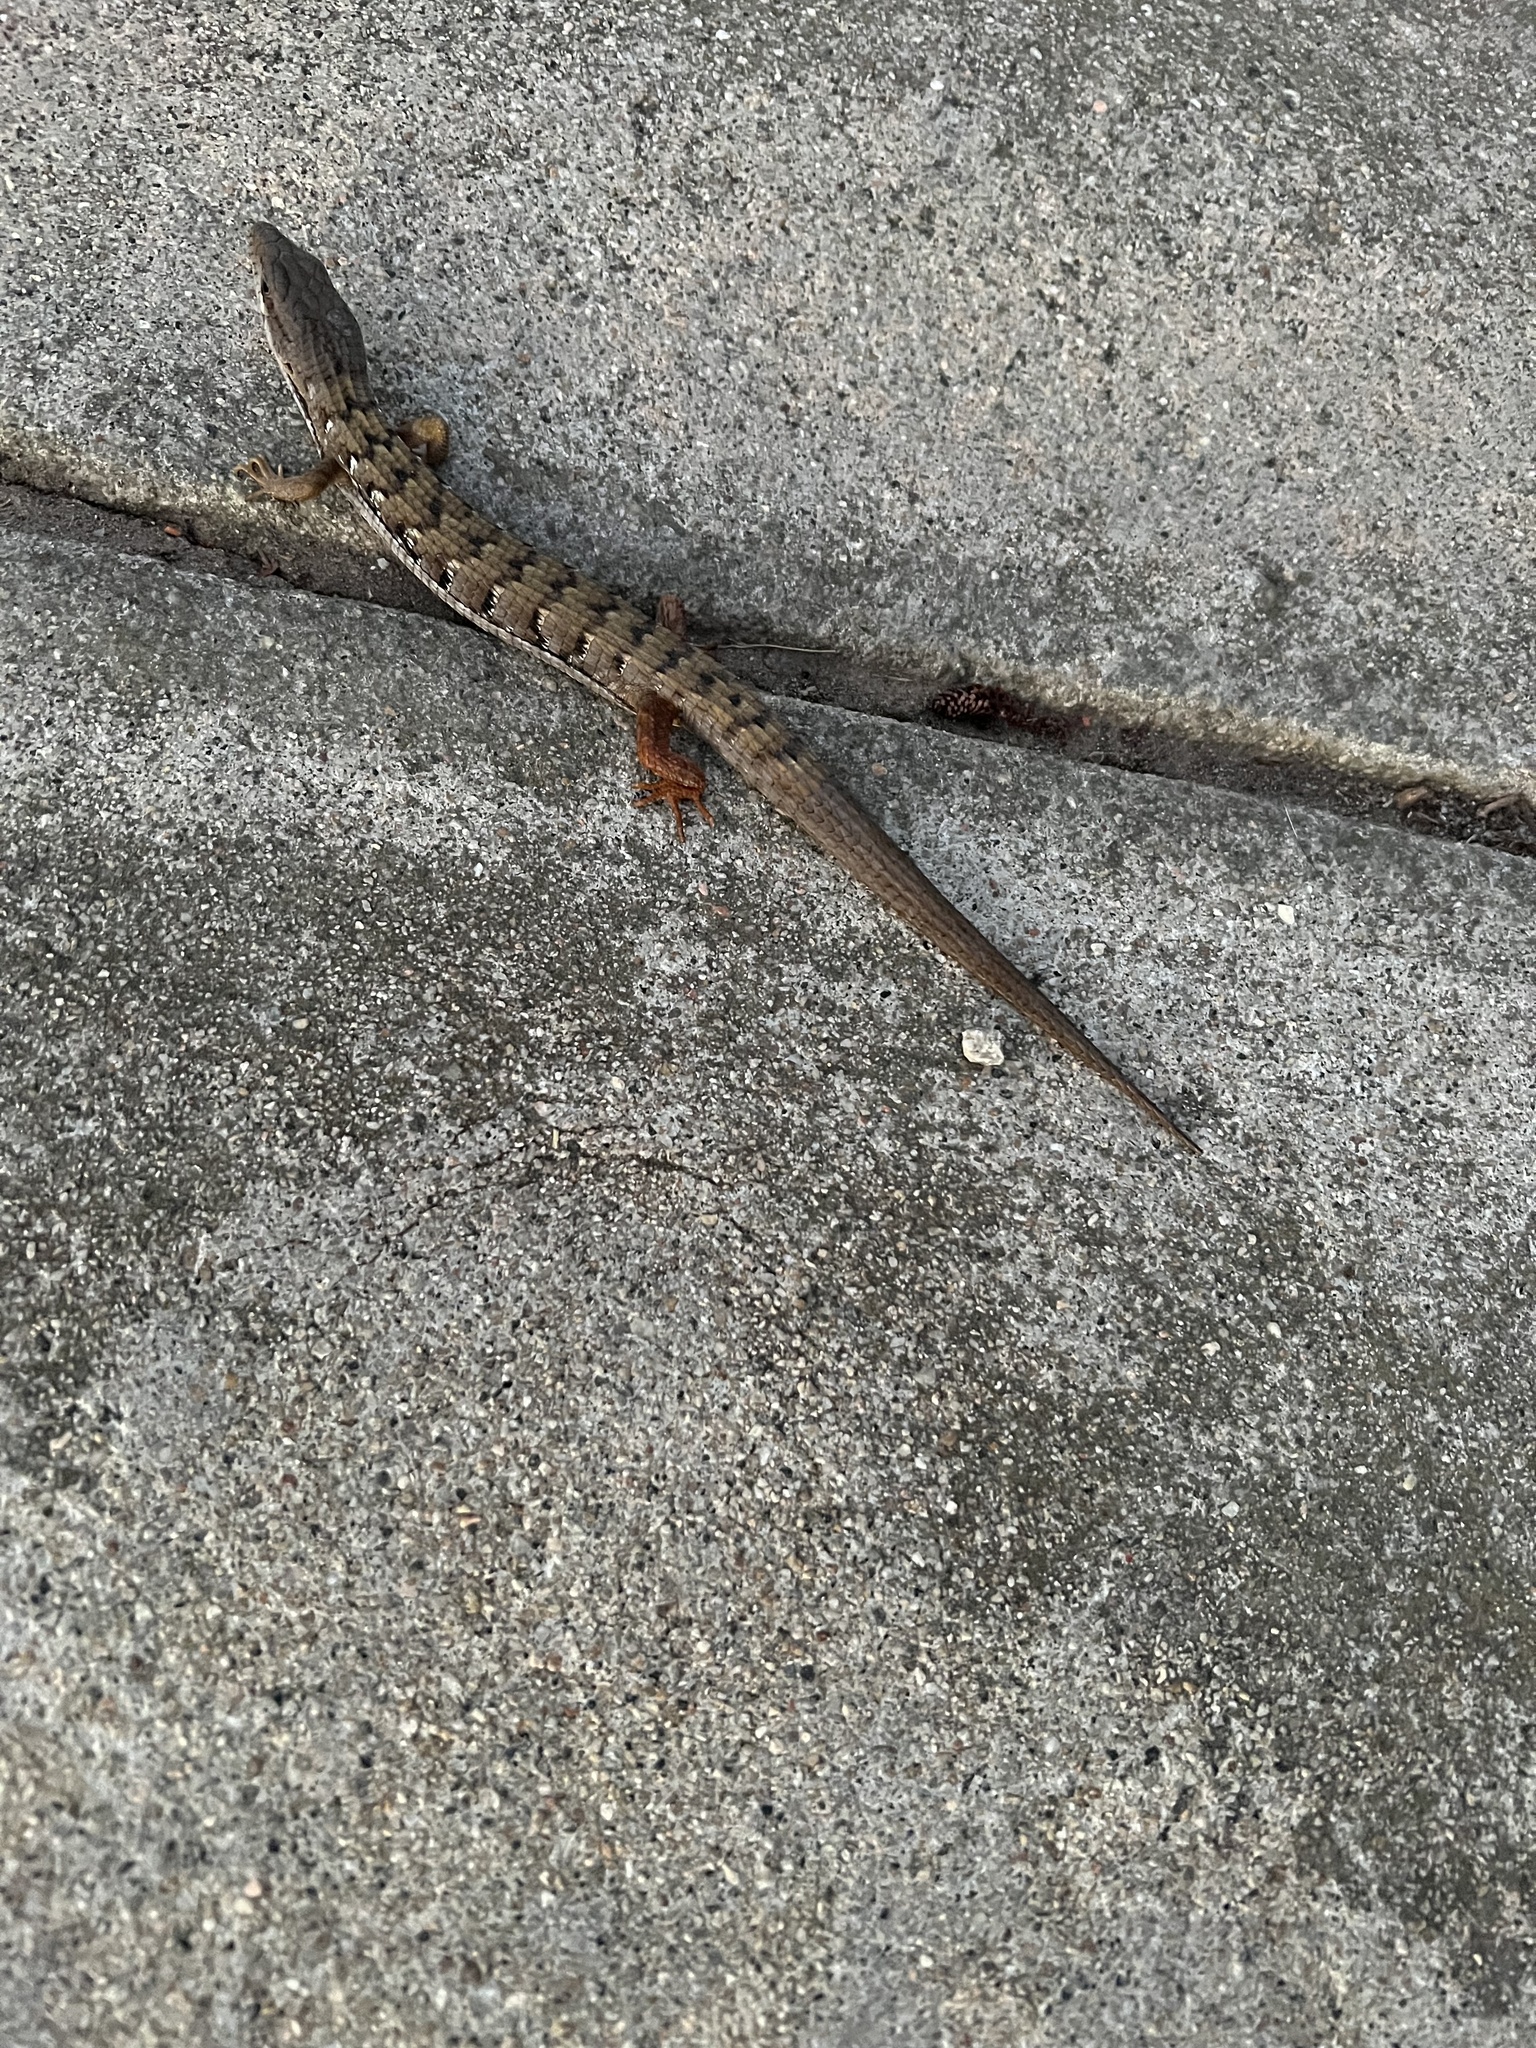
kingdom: Animalia
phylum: Chordata
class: Squamata
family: Anguidae
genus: Elgaria
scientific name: Elgaria multicarinata
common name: Southern alligator lizard
